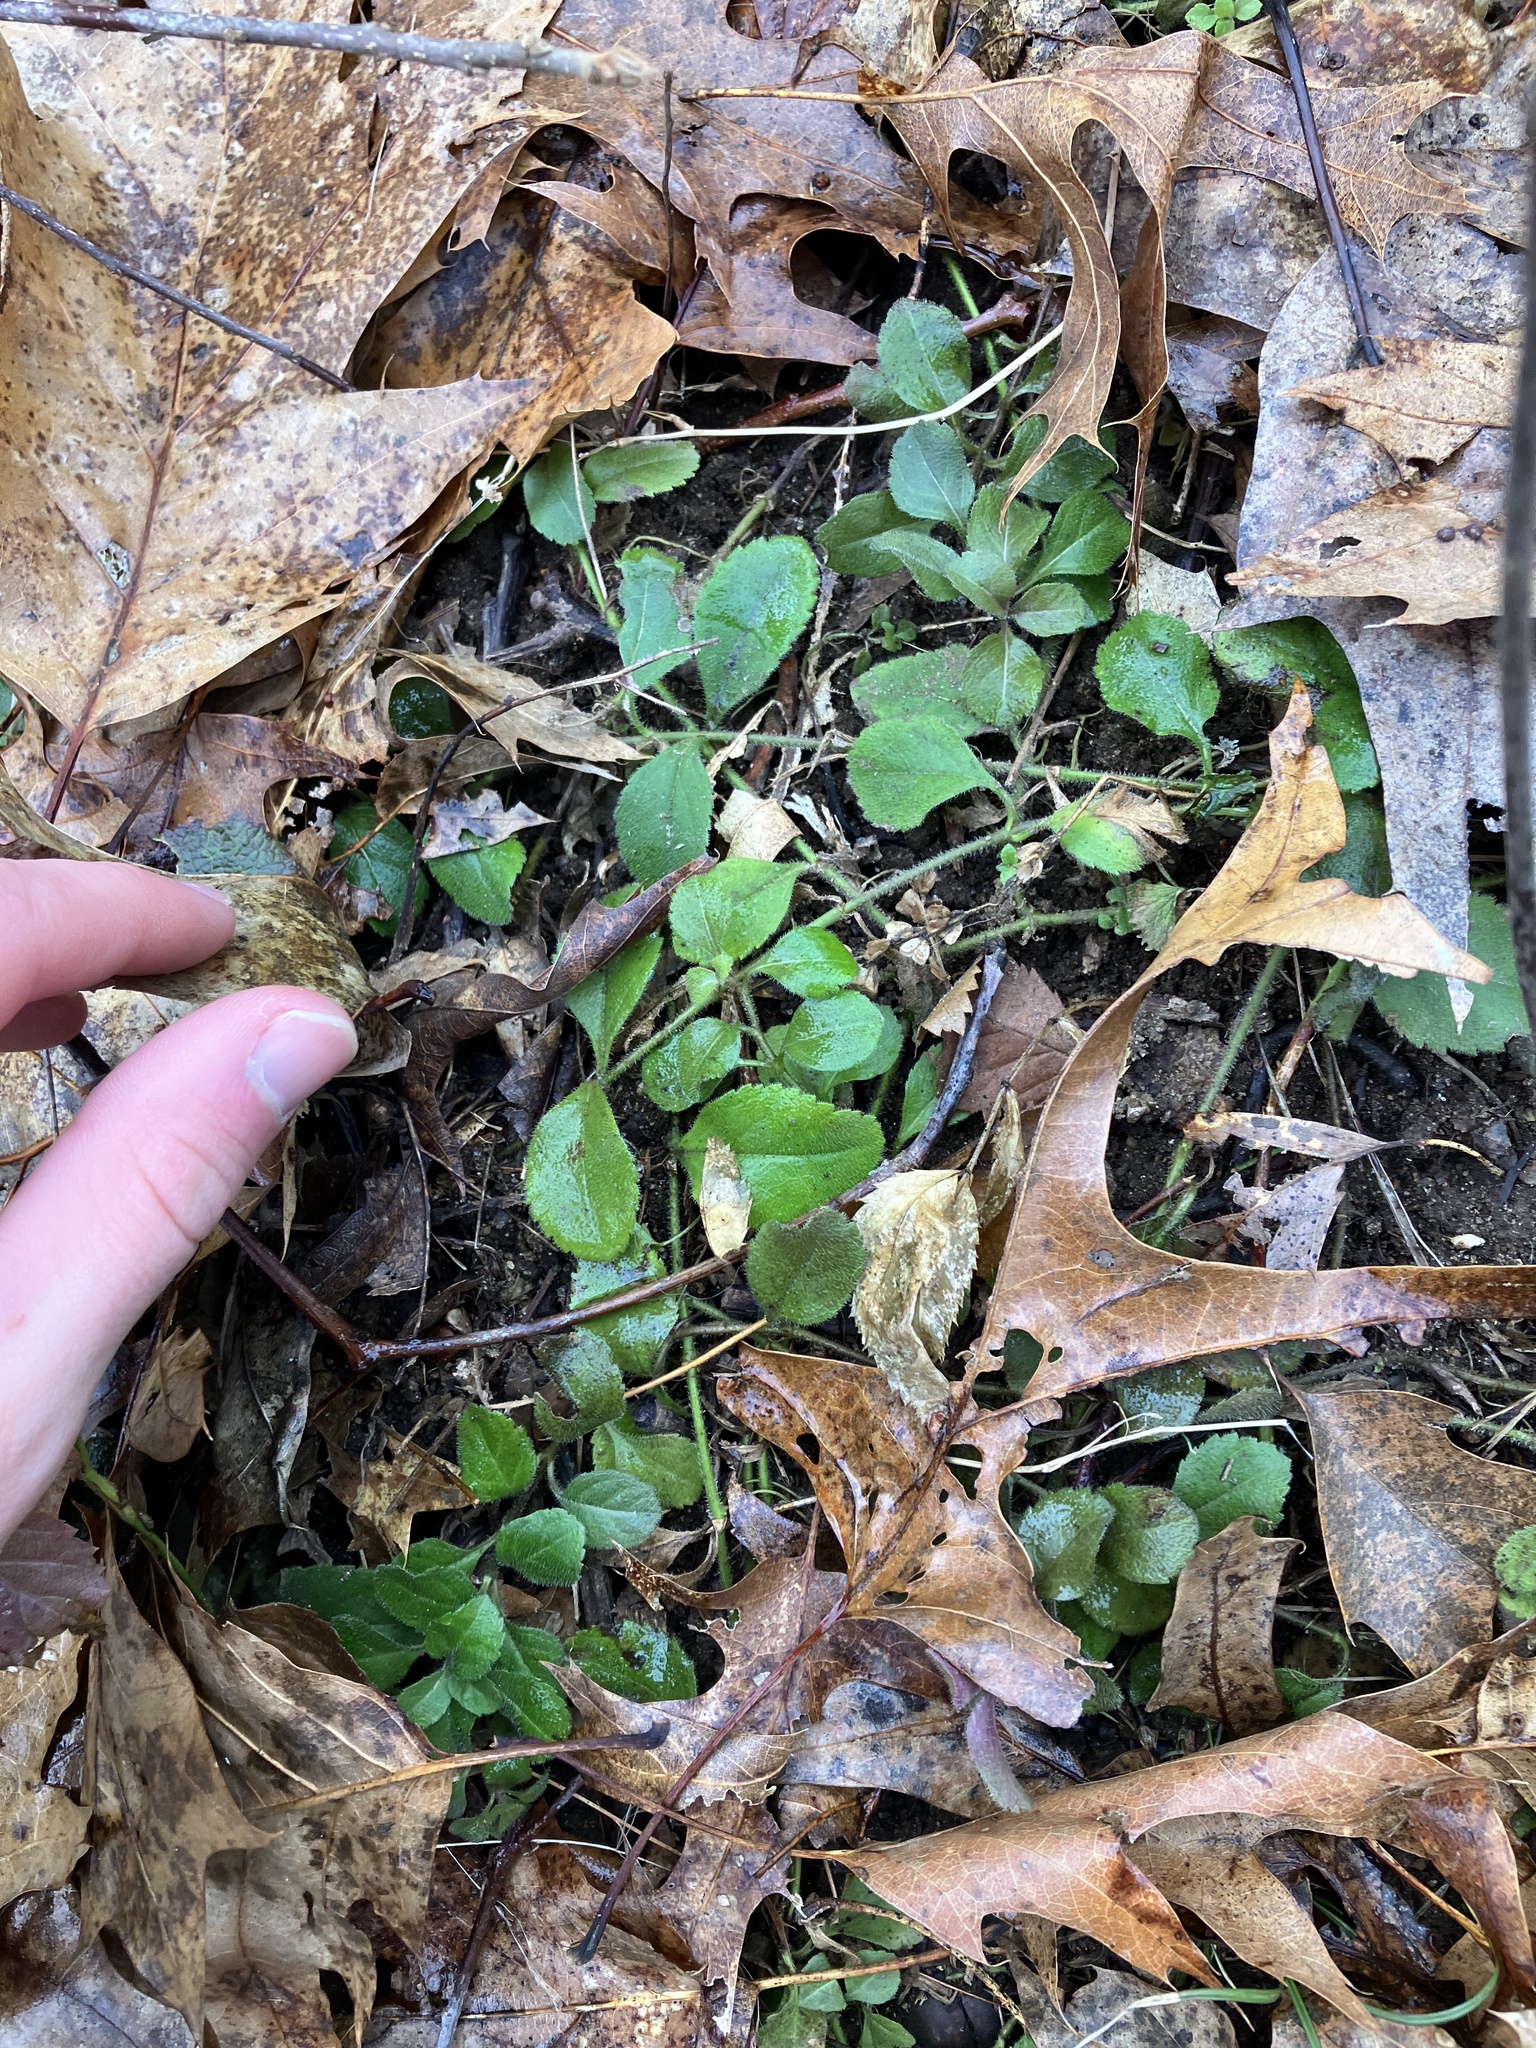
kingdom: Plantae
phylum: Tracheophyta
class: Magnoliopsida
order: Lamiales
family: Plantaginaceae
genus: Veronica
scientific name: Veronica officinalis
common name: Common speedwell
